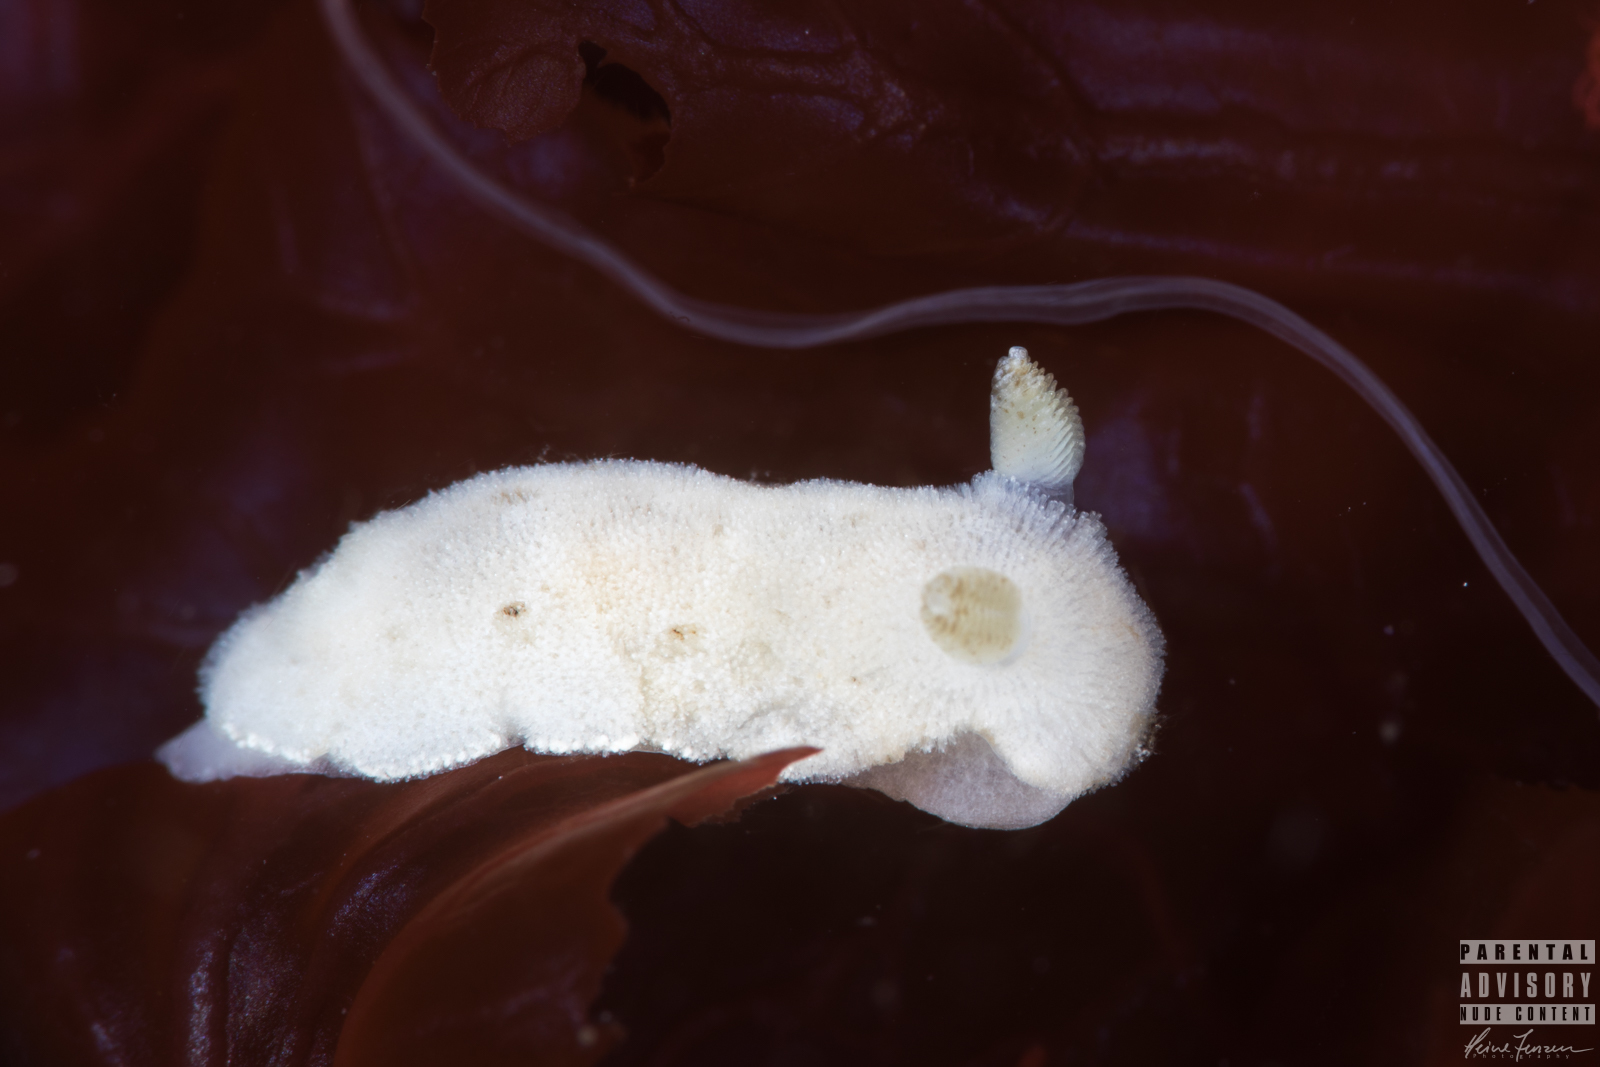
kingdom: Animalia
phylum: Mollusca
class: Gastropoda
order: Nudibranchia
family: Discodorididae
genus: Jorunna
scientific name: Jorunna tomentosa
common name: Grey sea slug
